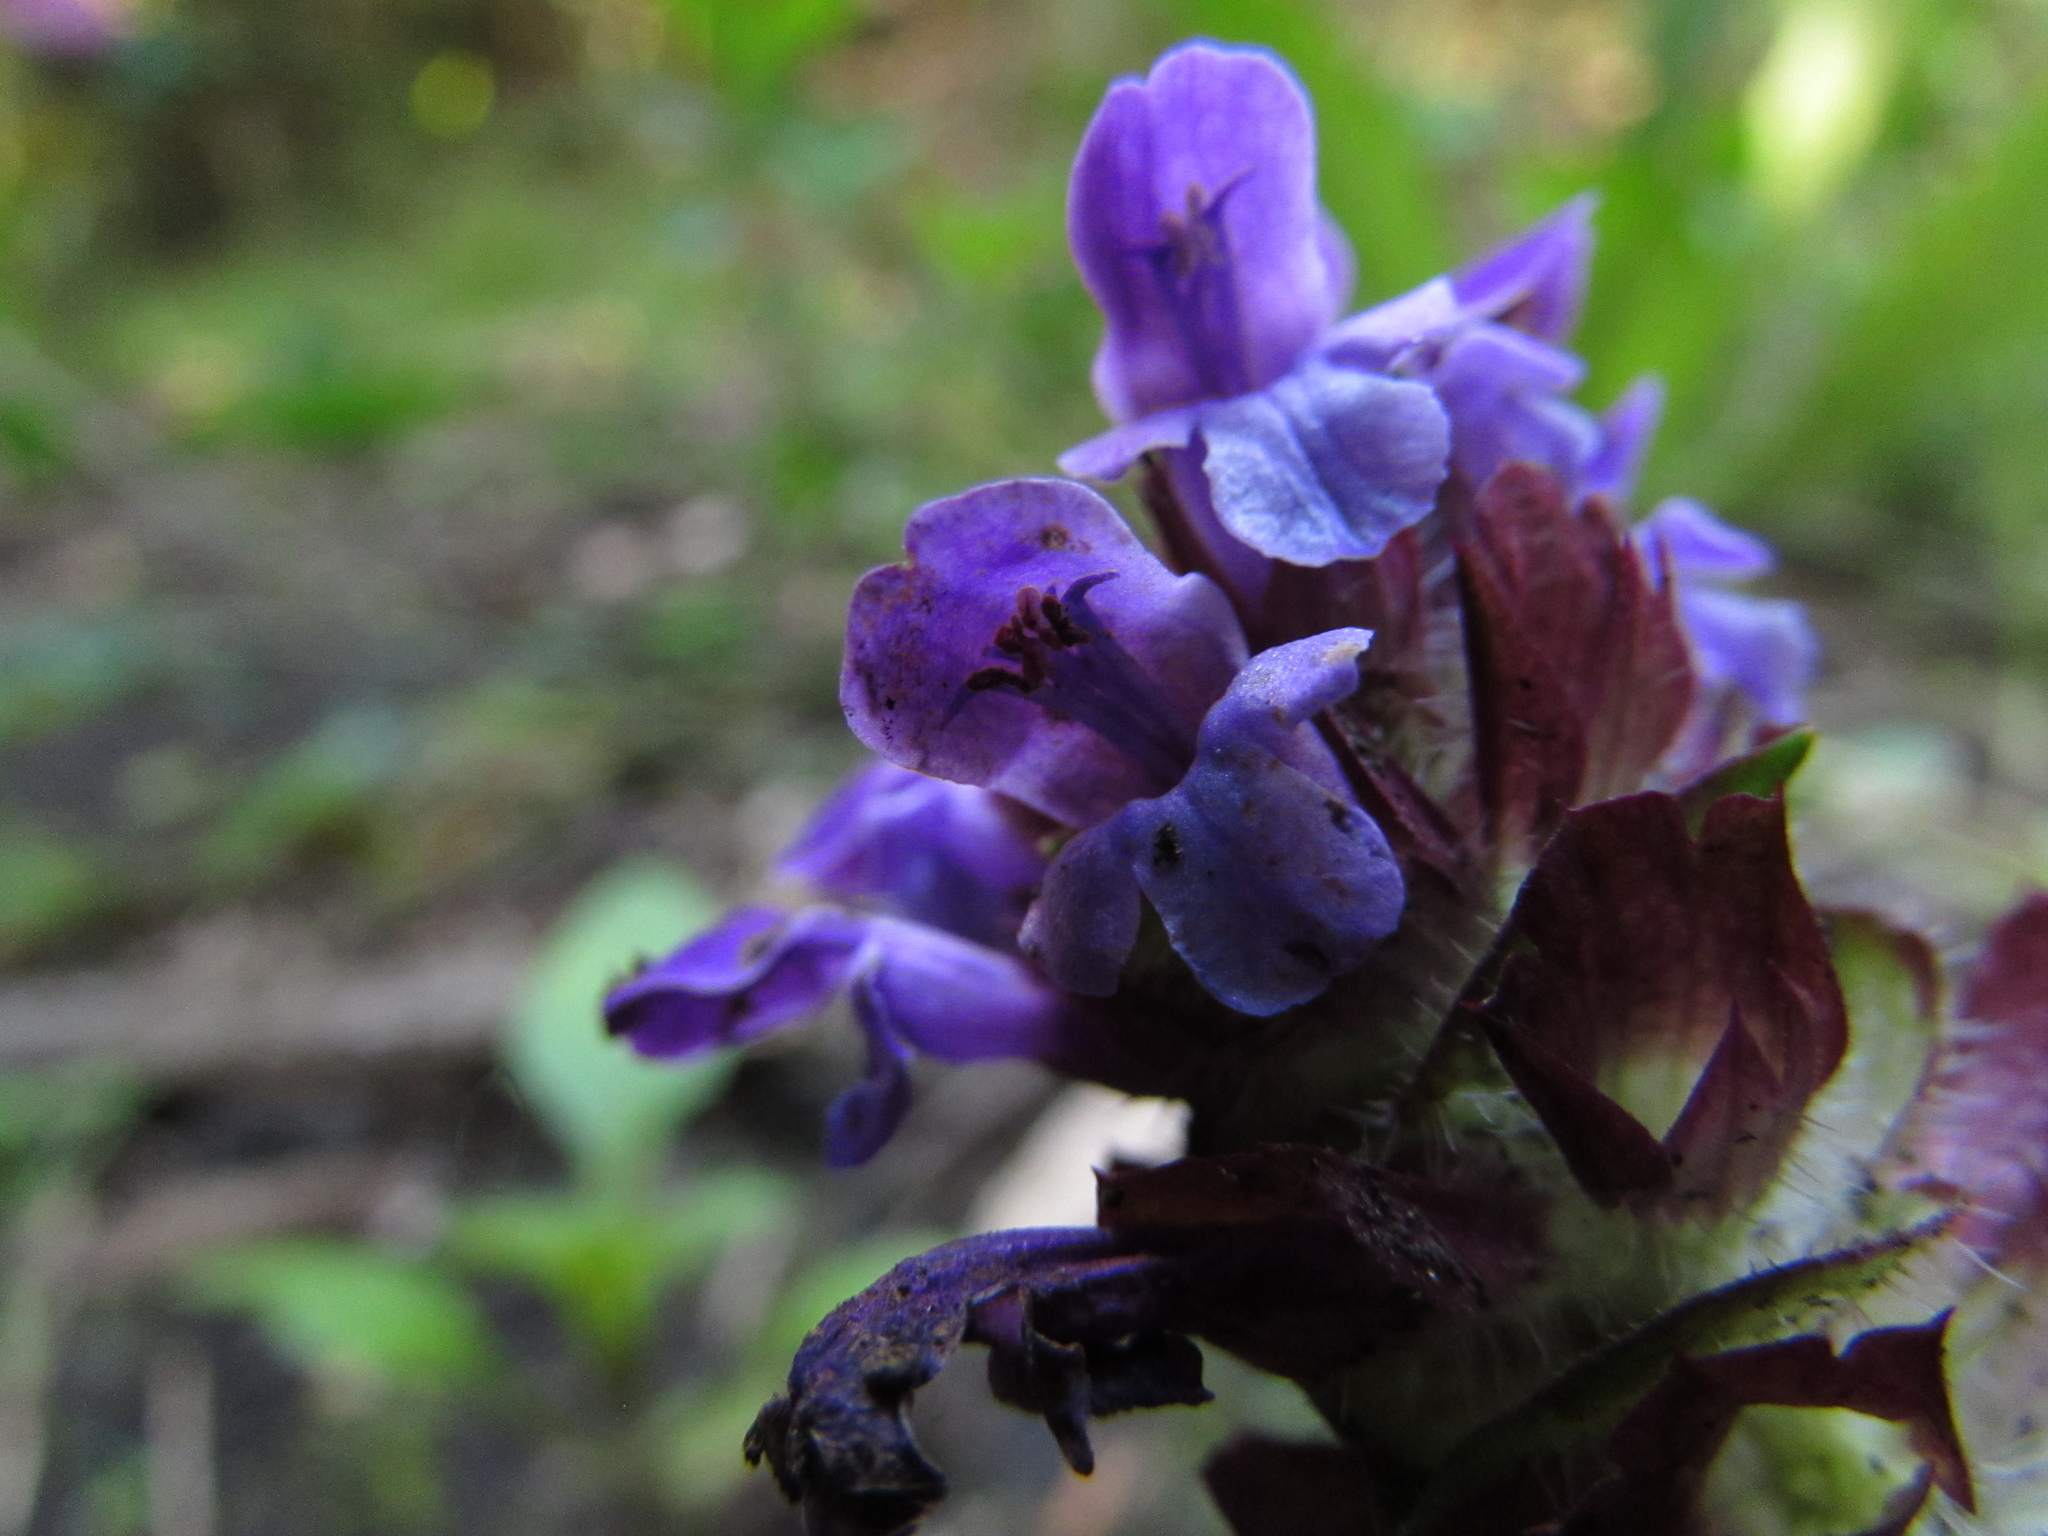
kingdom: Plantae
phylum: Tracheophyta
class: Magnoliopsida
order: Lamiales
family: Lamiaceae
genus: Prunella
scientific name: Prunella vulgaris
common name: Heal-all
